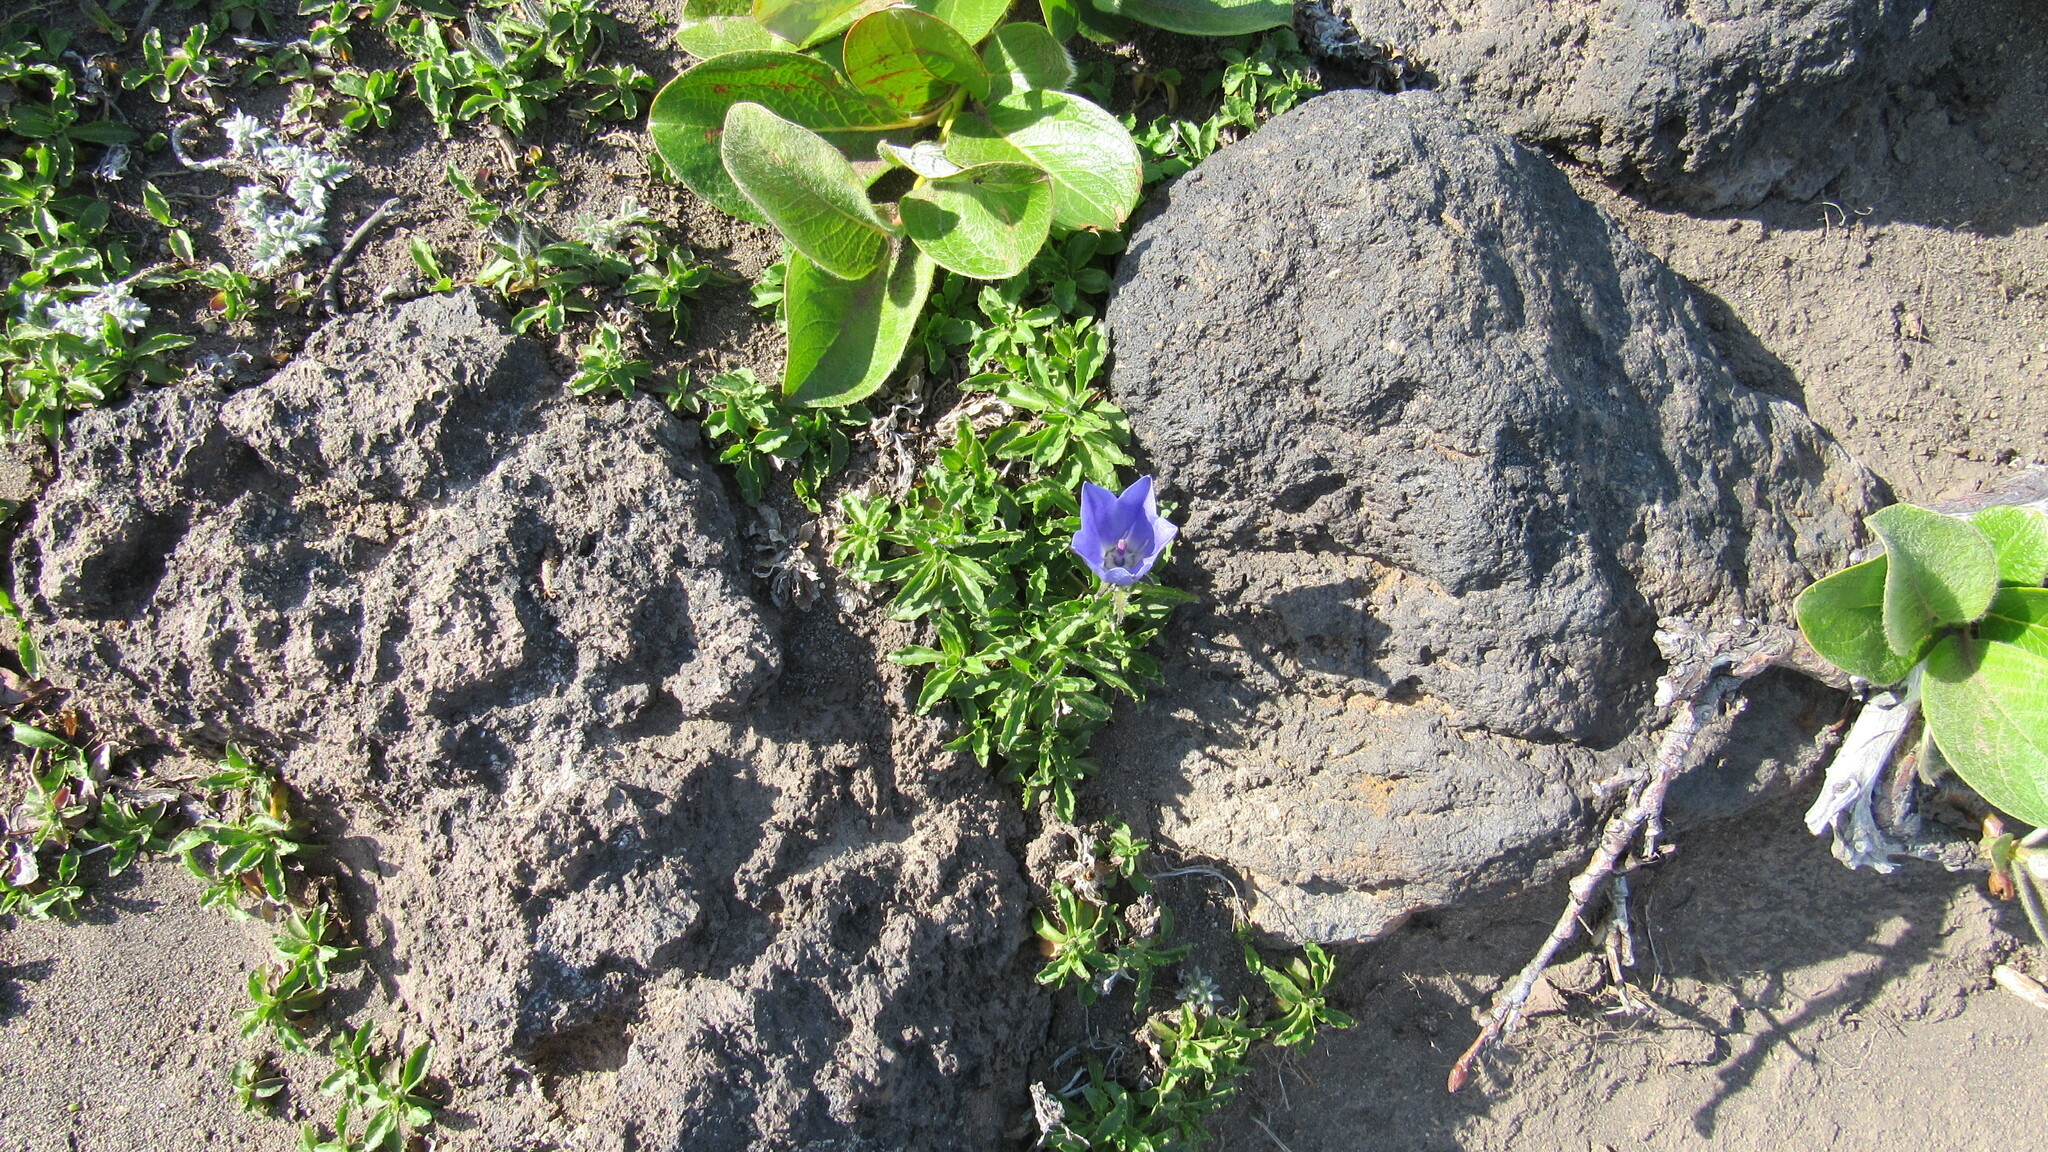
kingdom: Plantae
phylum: Tracheophyta
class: Magnoliopsida
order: Asterales
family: Campanulaceae
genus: Campanula
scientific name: Campanula lasiocarpa
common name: Mountain harebell
